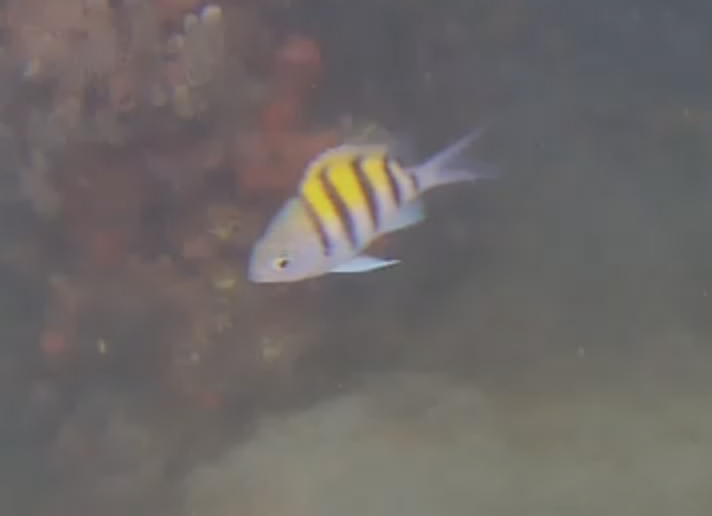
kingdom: Animalia
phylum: Chordata
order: Perciformes
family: Pomacentridae
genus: Abudefduf
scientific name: Abudefduf saxatilis
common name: Sergeant major
